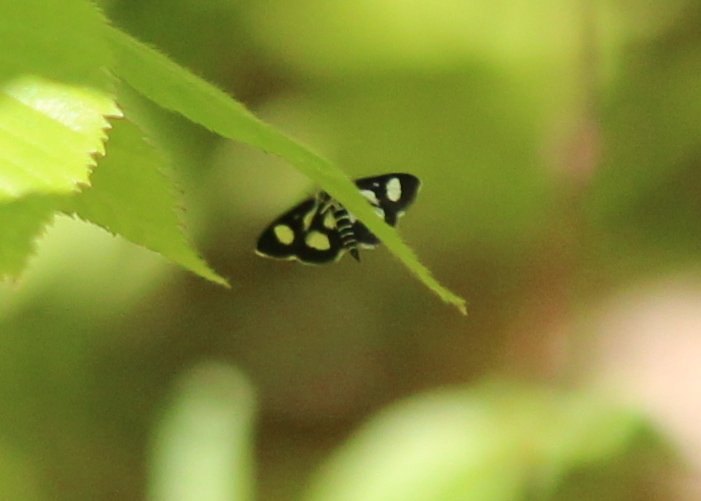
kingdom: Animalia
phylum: Arthropoda
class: Insecta
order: Lepidoptera
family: Crambidae
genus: Anania
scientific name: Anania funebris
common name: White-spotted sable moth
